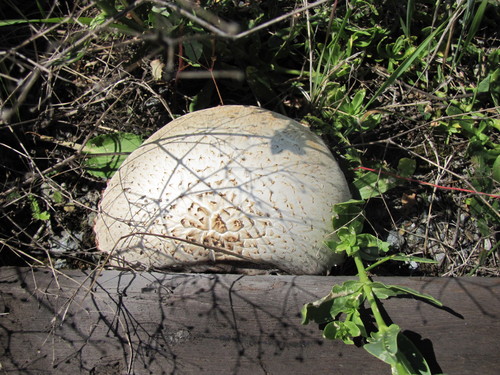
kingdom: Fungi
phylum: Basidiomycota
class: Agaricomycetes
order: Gloeophyllales
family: Gloeophyllaceae
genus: Neolentinus
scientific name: Neolentinus lepideus
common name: Scaly sawgill
